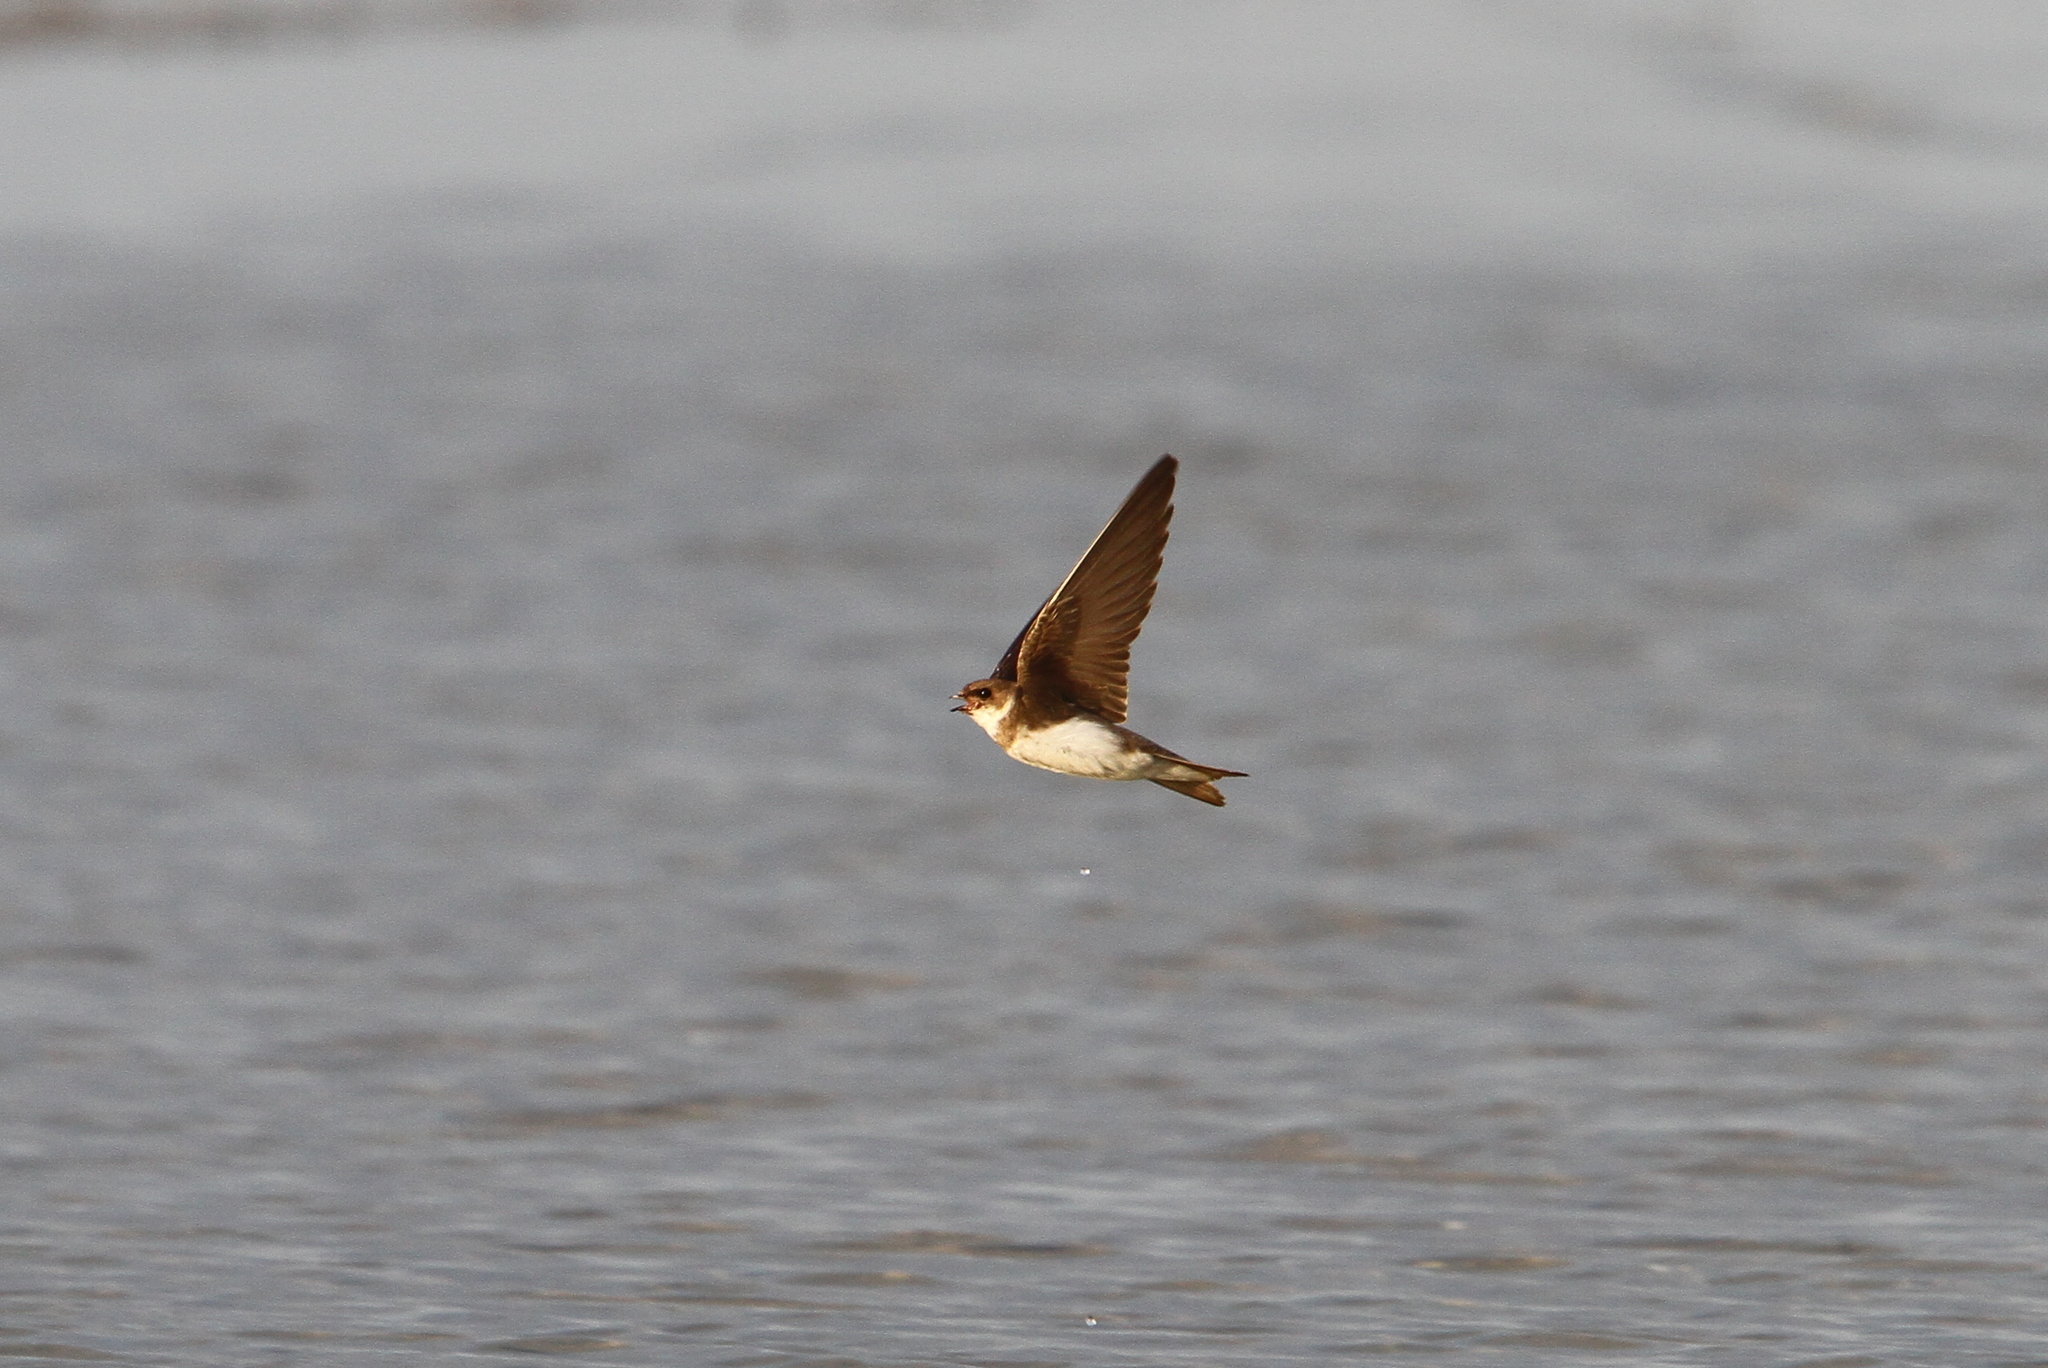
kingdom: Animalia
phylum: Chordata
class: Aves
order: Passeriformes
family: Hirundinidae
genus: Riparia
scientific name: Riparia riparia
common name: Sand martin
